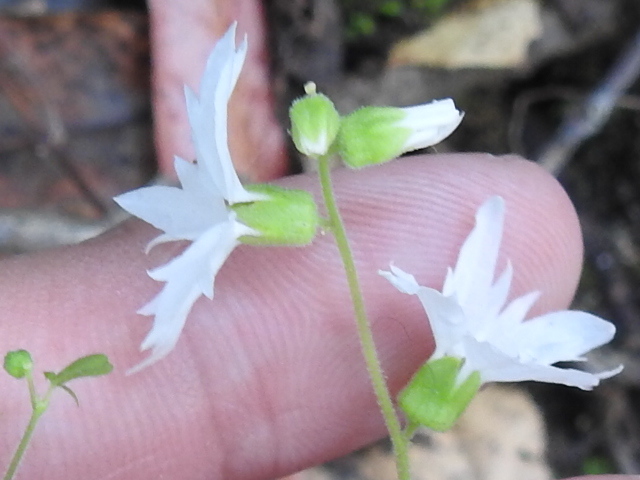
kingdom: Plantae
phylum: Tracheophyta
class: Magnoliopsida
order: Saxifragales
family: Saxifragaceae
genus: Lithophragma
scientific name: Lithophragma heterophyllum
